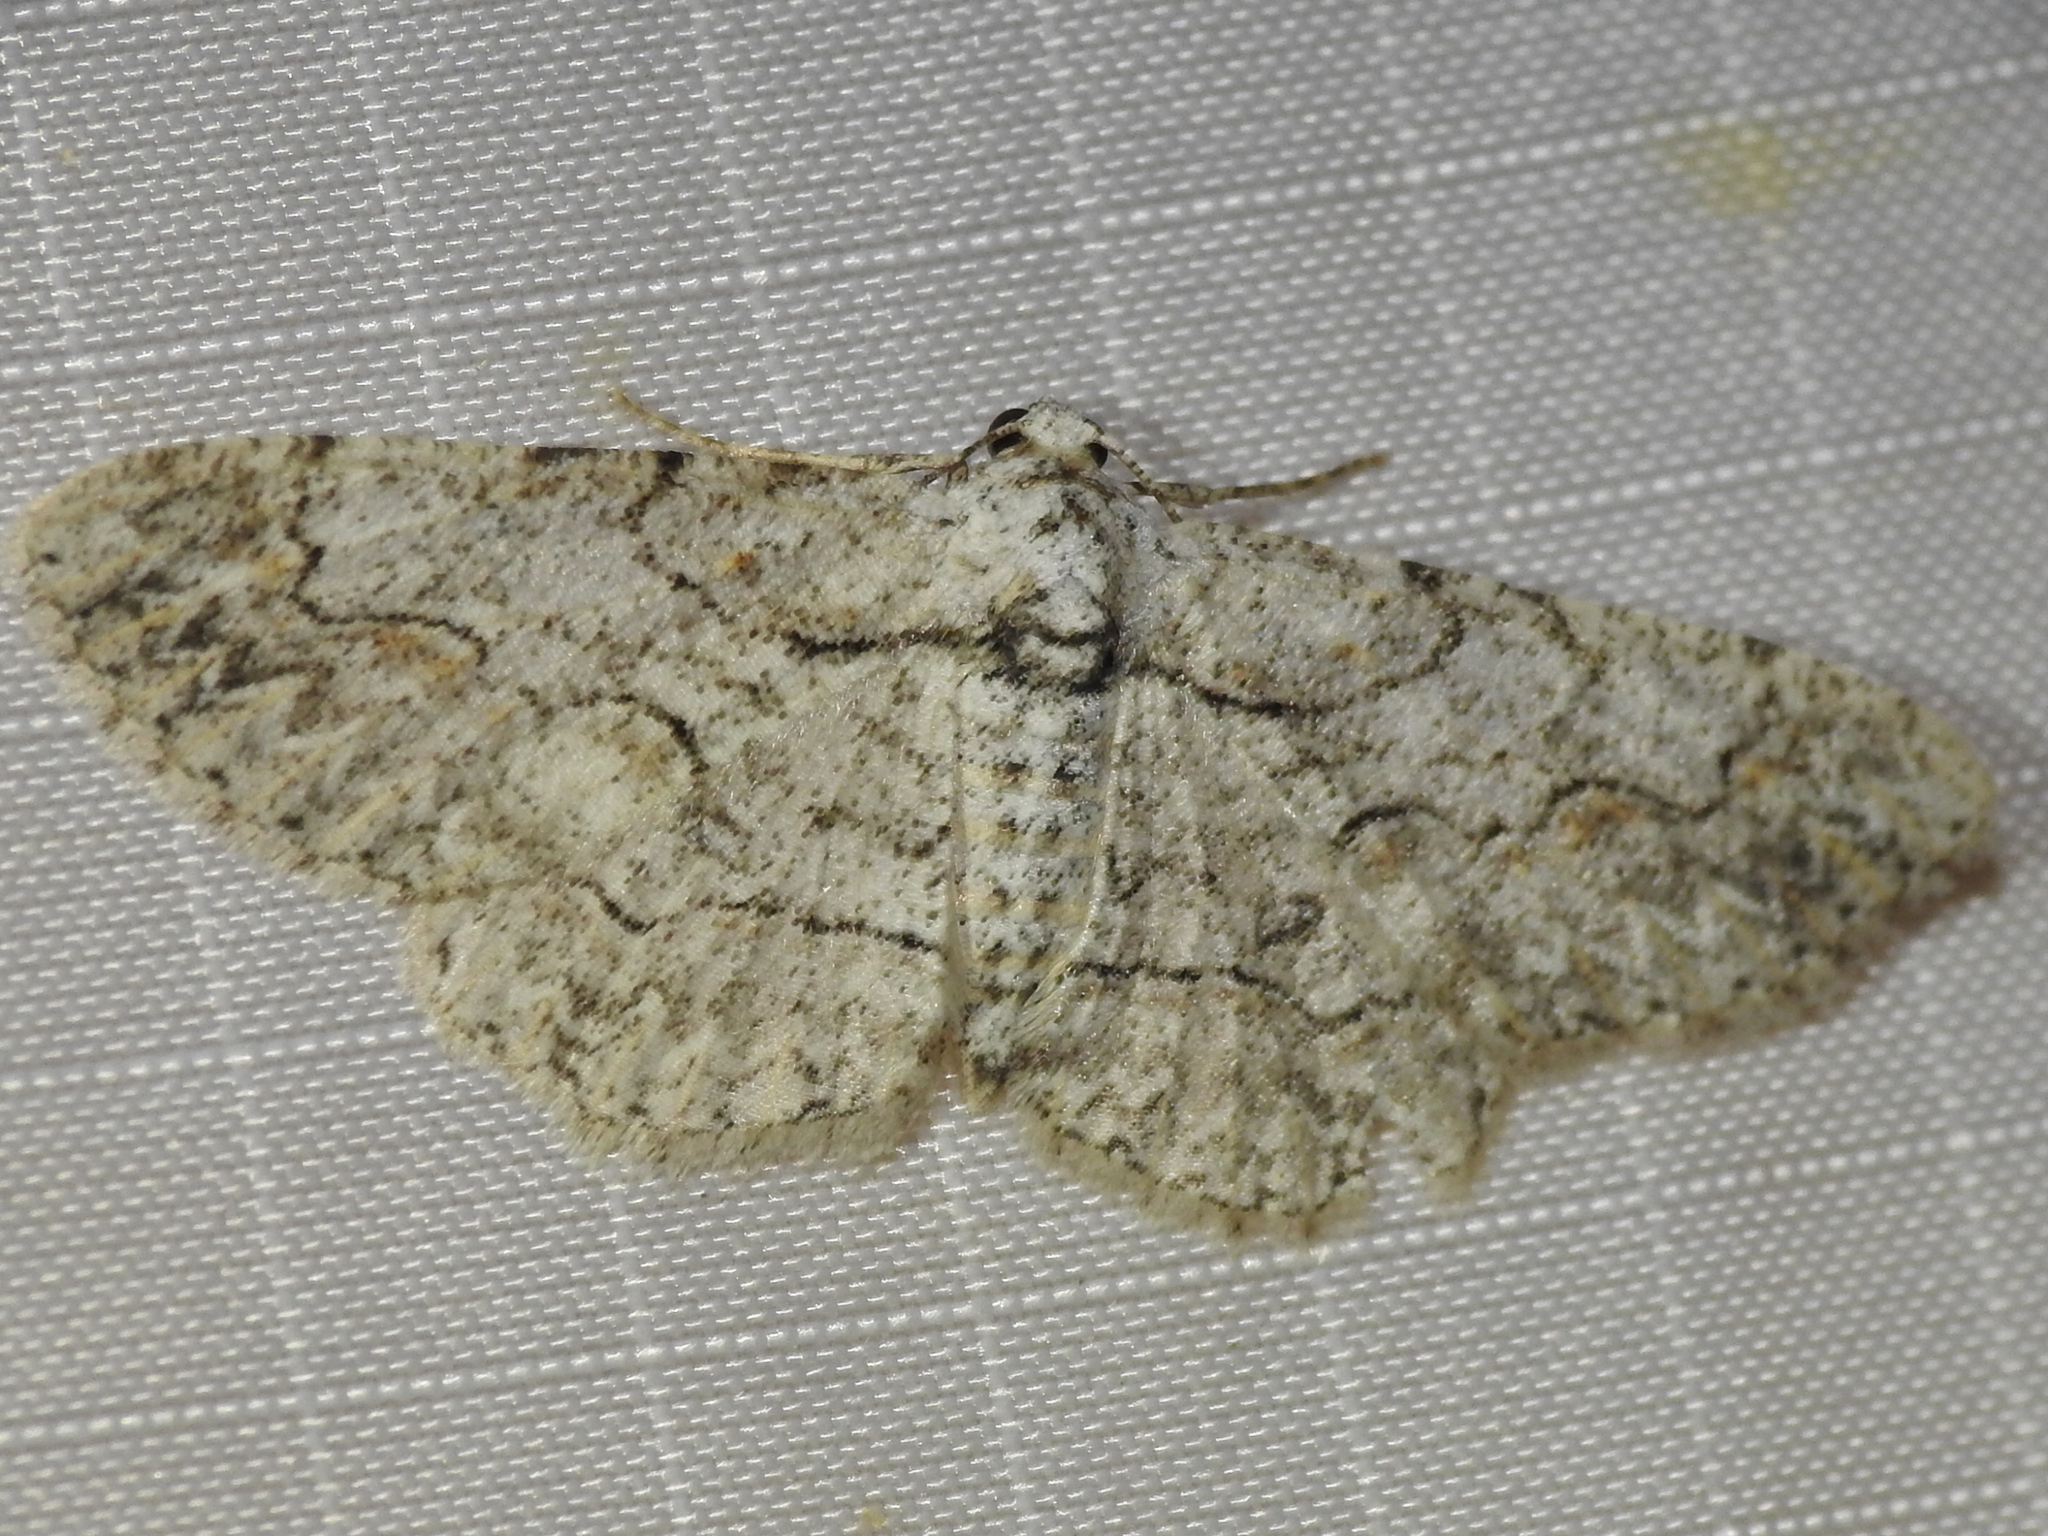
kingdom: Animalia
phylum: Arthropoda
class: Insecta
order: Lepidoptera
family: Geometridae
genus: Iridopsis
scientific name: Iridopsis defectaria
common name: Brown-shaded gray
